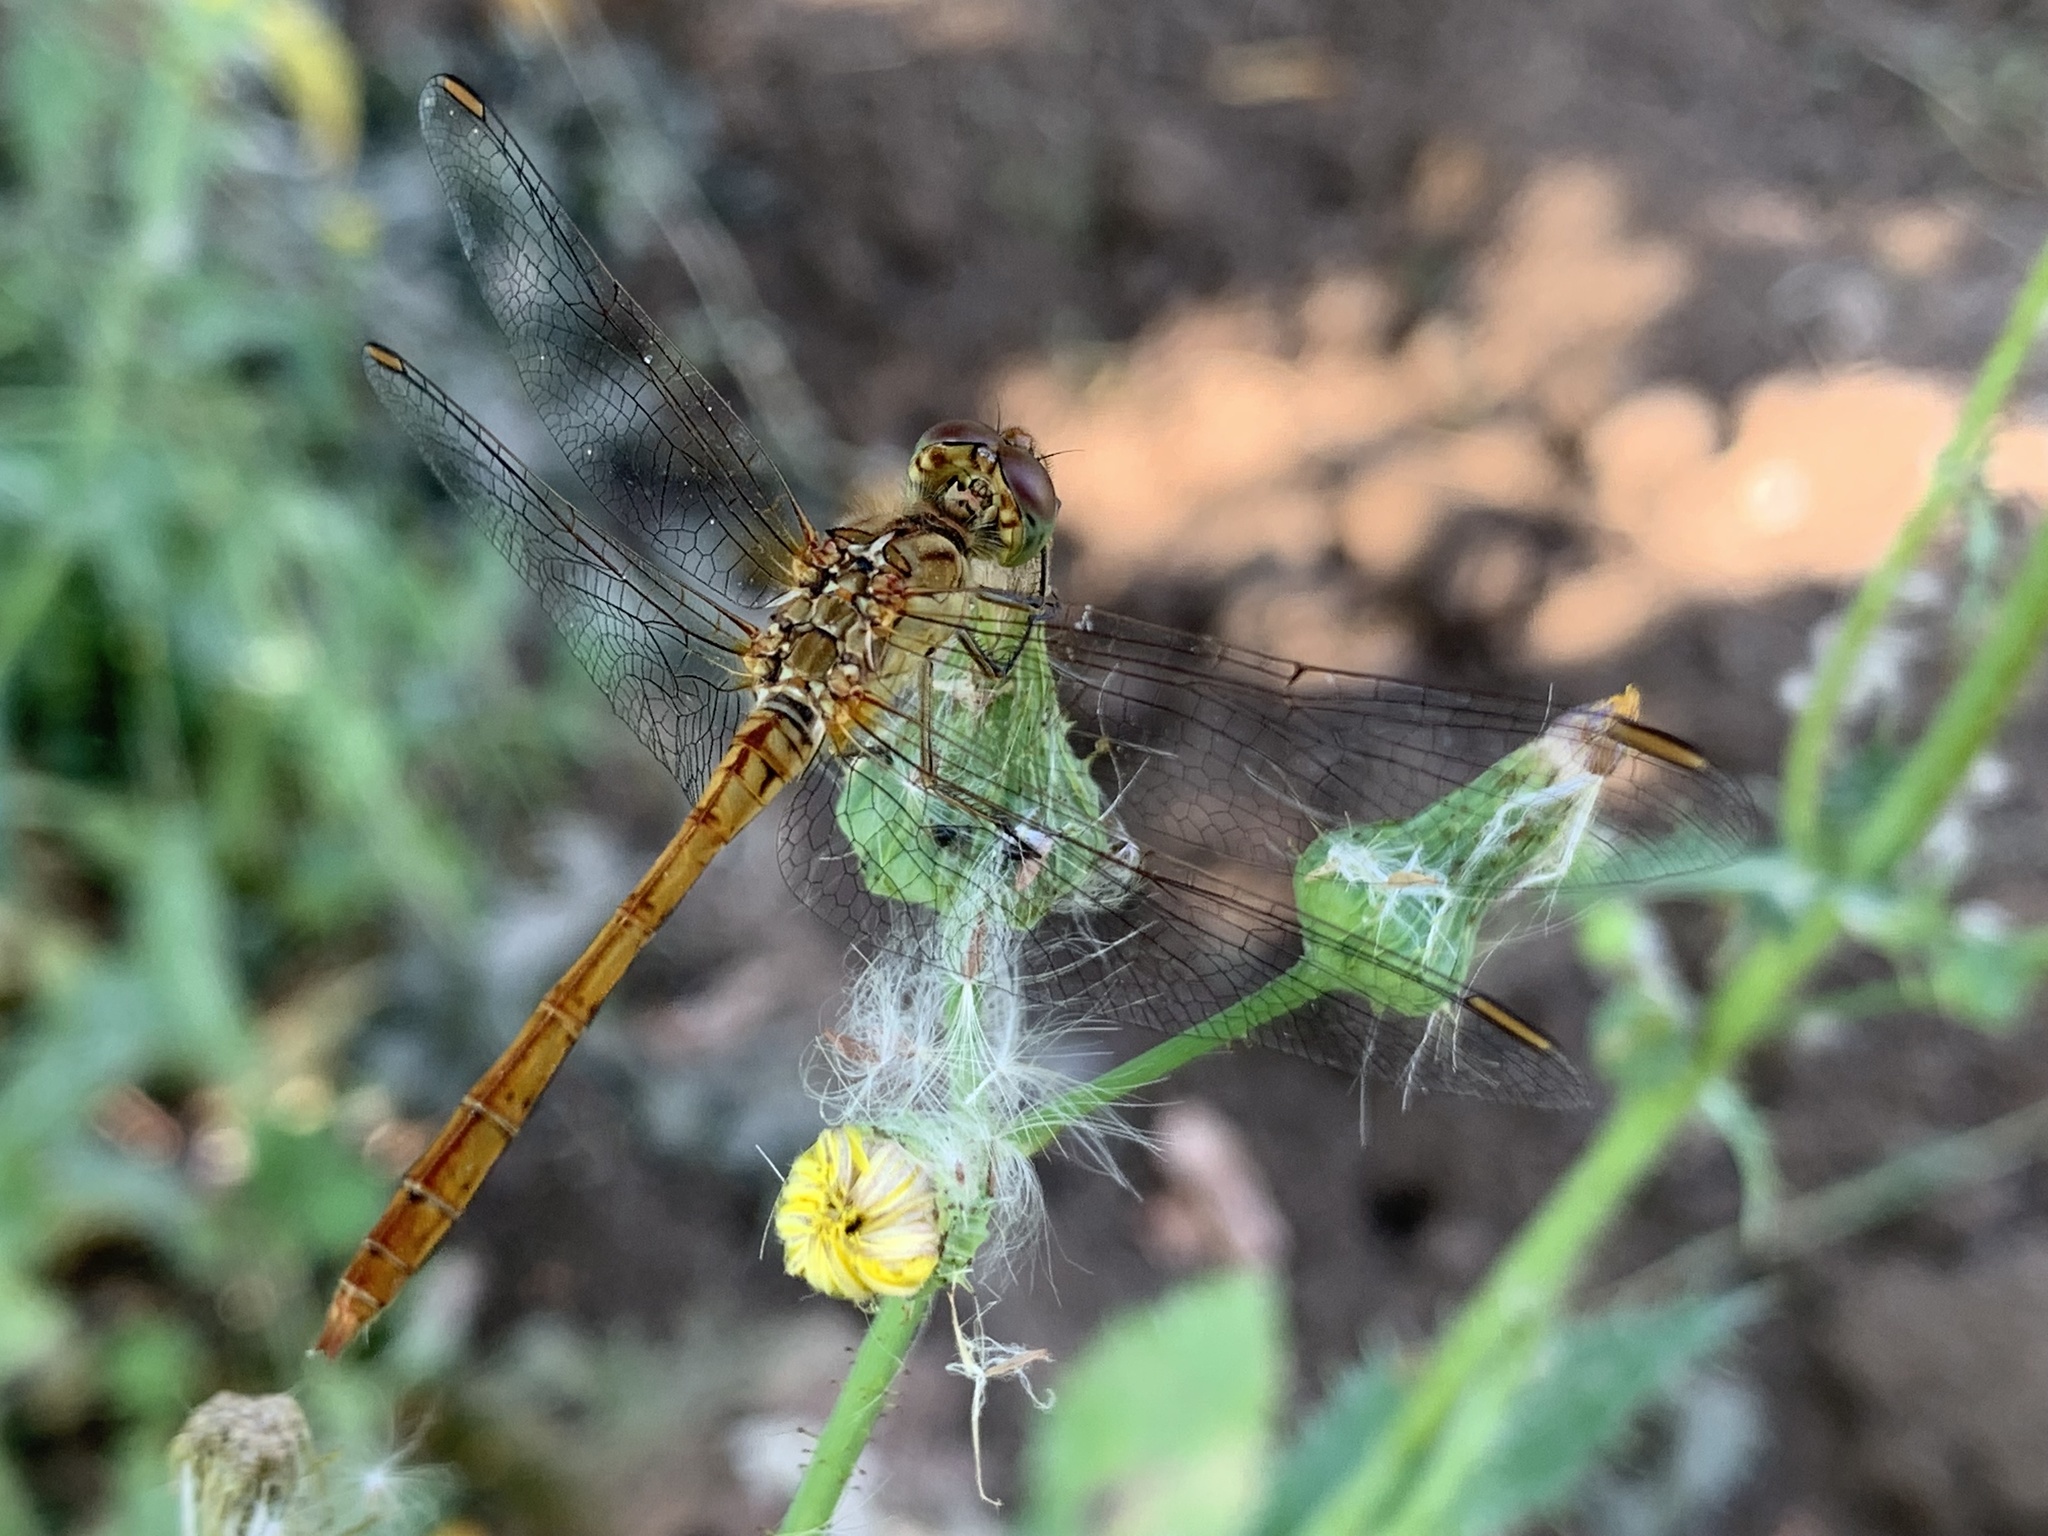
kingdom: Animalia
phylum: Arthropoda
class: Insecta
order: Odonata
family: Libellulidae
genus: Sympetrum
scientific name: Sympetrum meridionale
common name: Southern darter
